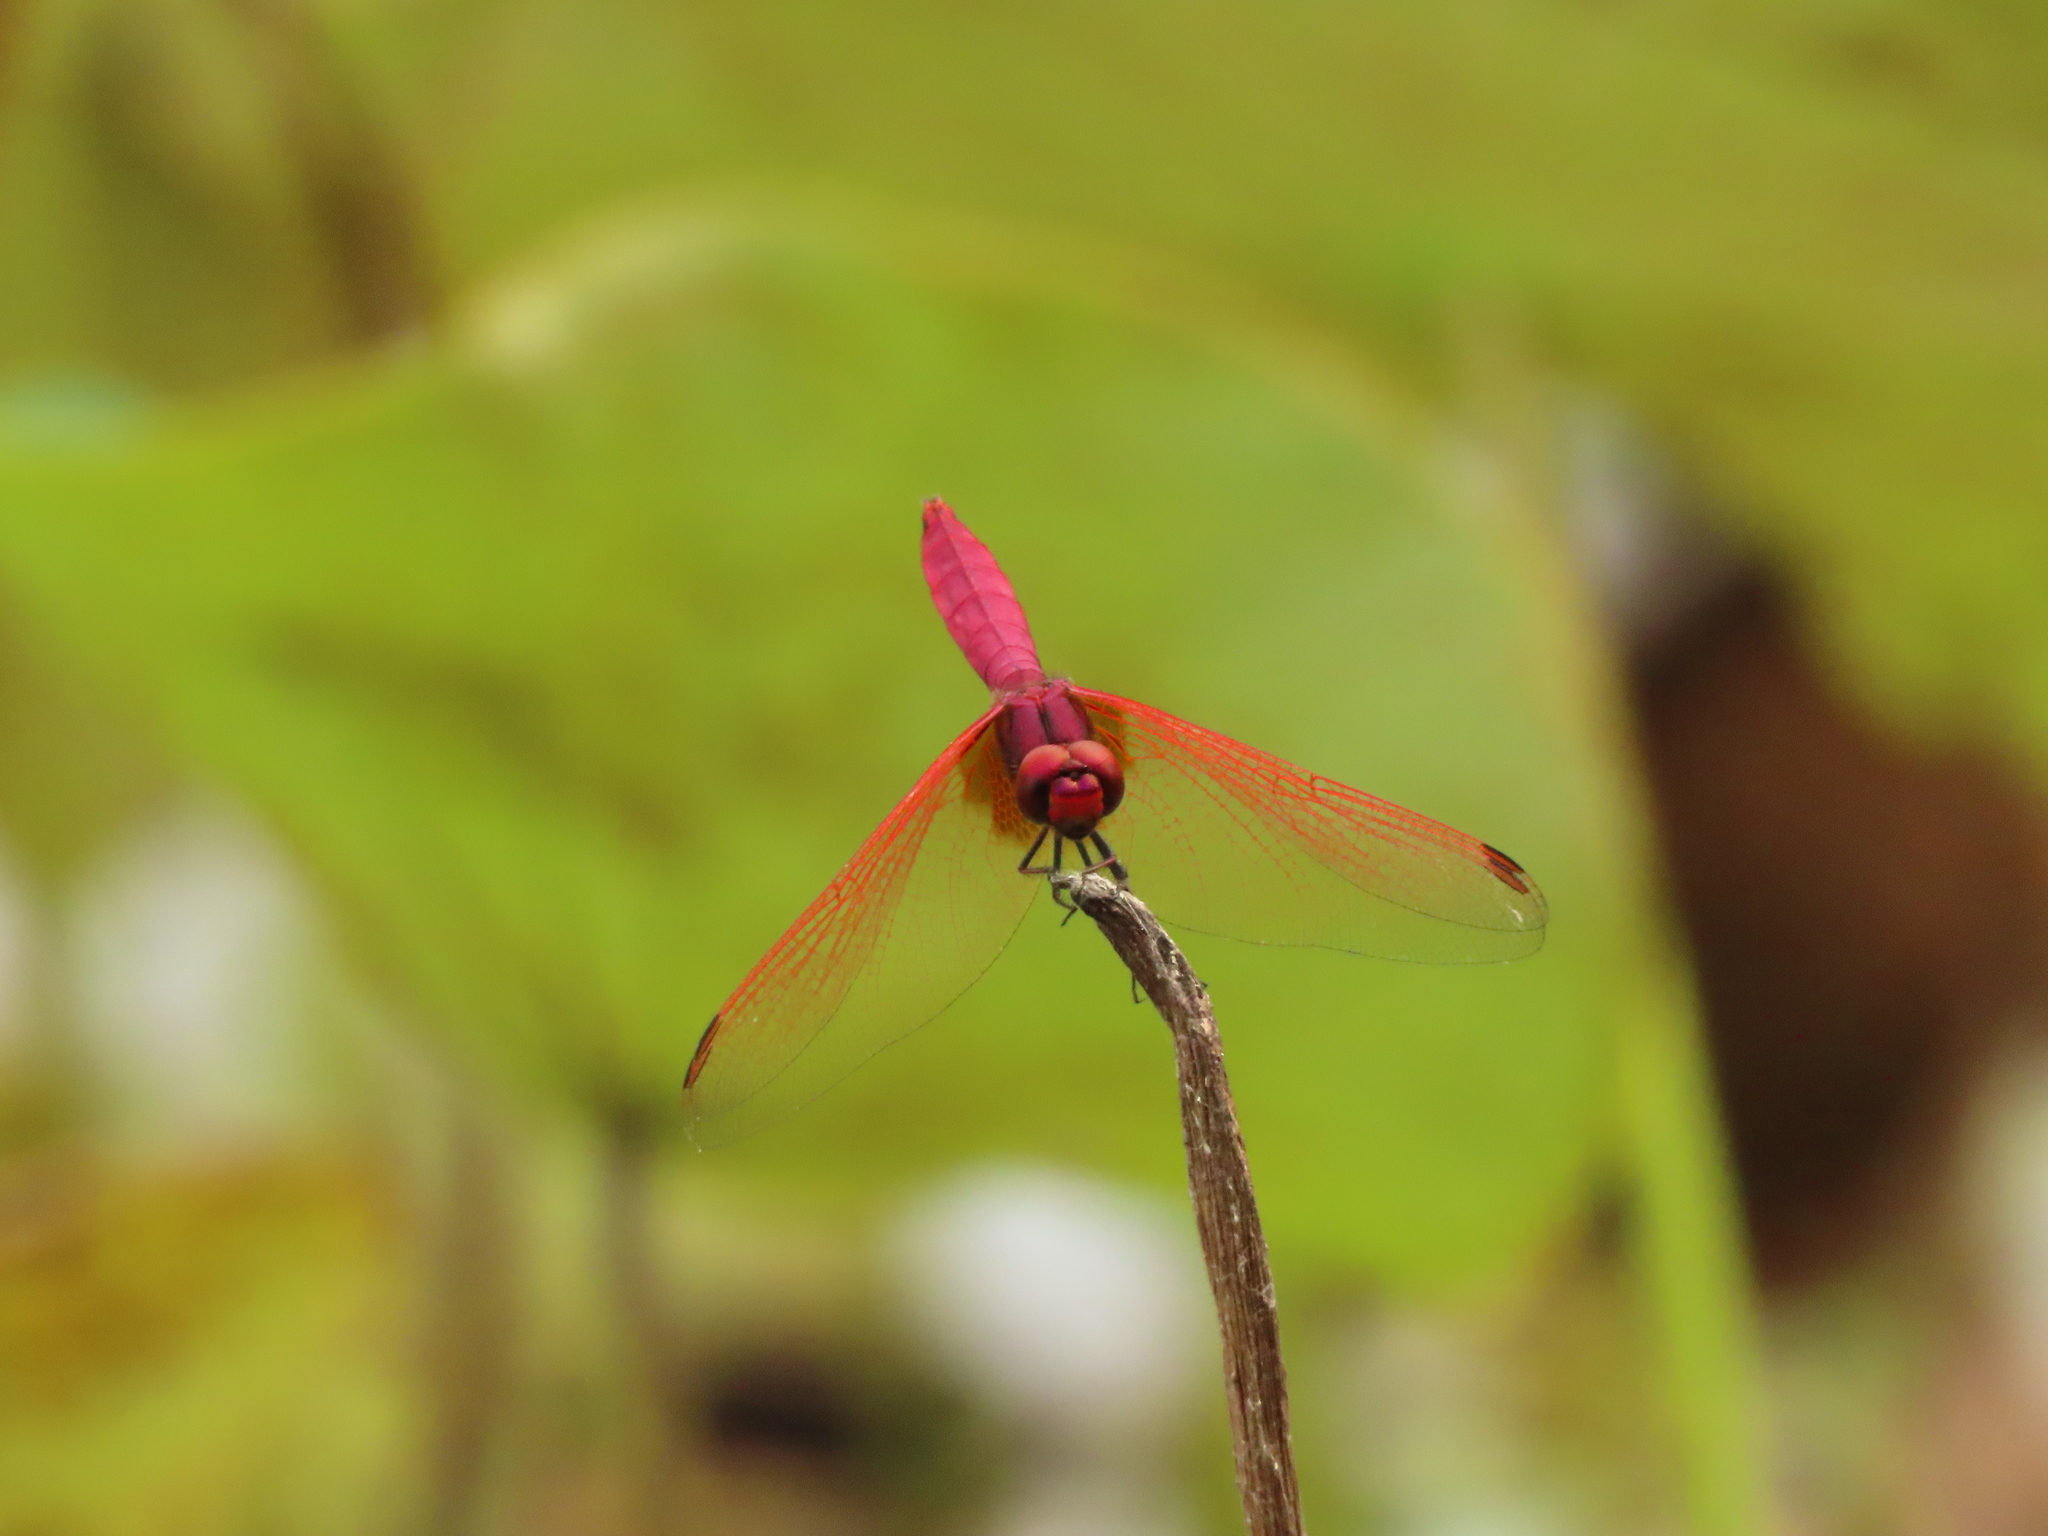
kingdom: Animalia
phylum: Arthropoda
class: Insecta
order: Odonata
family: Libellulidae
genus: Trithemis
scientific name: Trithemis aurora
